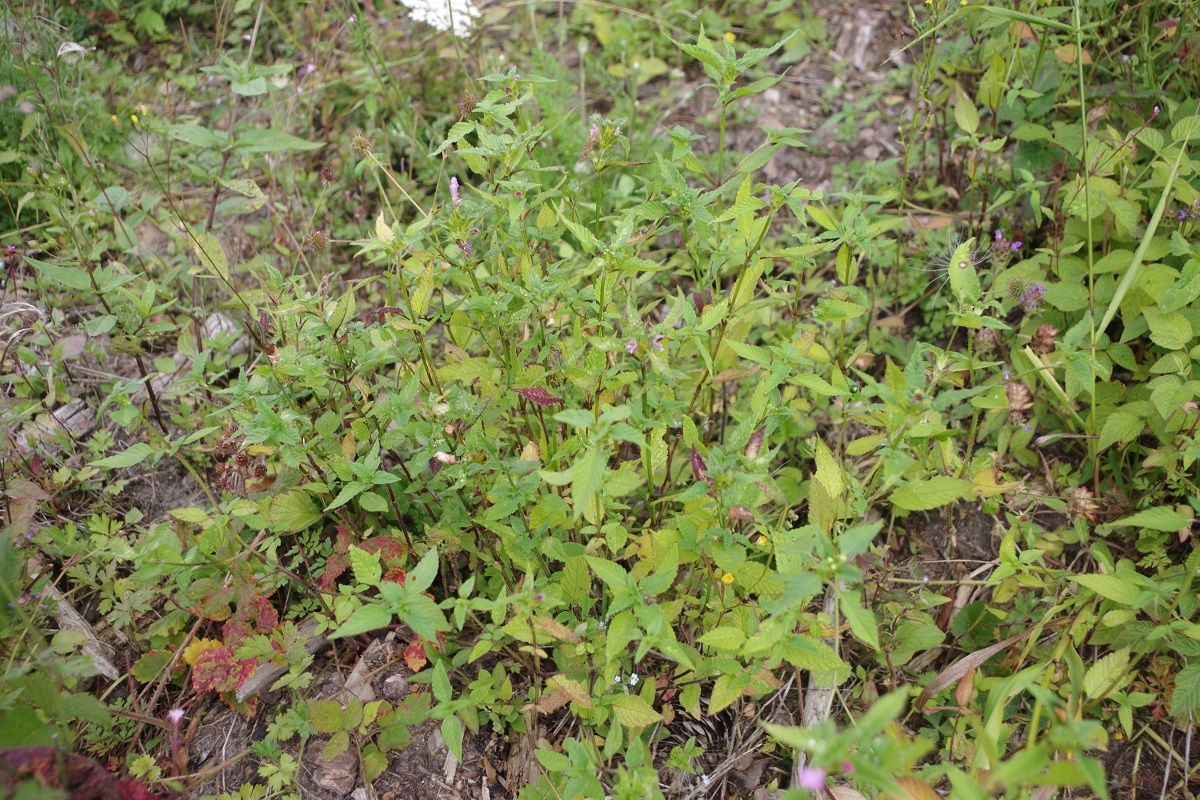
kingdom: Plantae
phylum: Tracheophyta
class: Magnoliopsida
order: Lamiales
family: Lamiaceae
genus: Galeopsis
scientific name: Galeopsis bifida
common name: Bifid hemp-nettle
